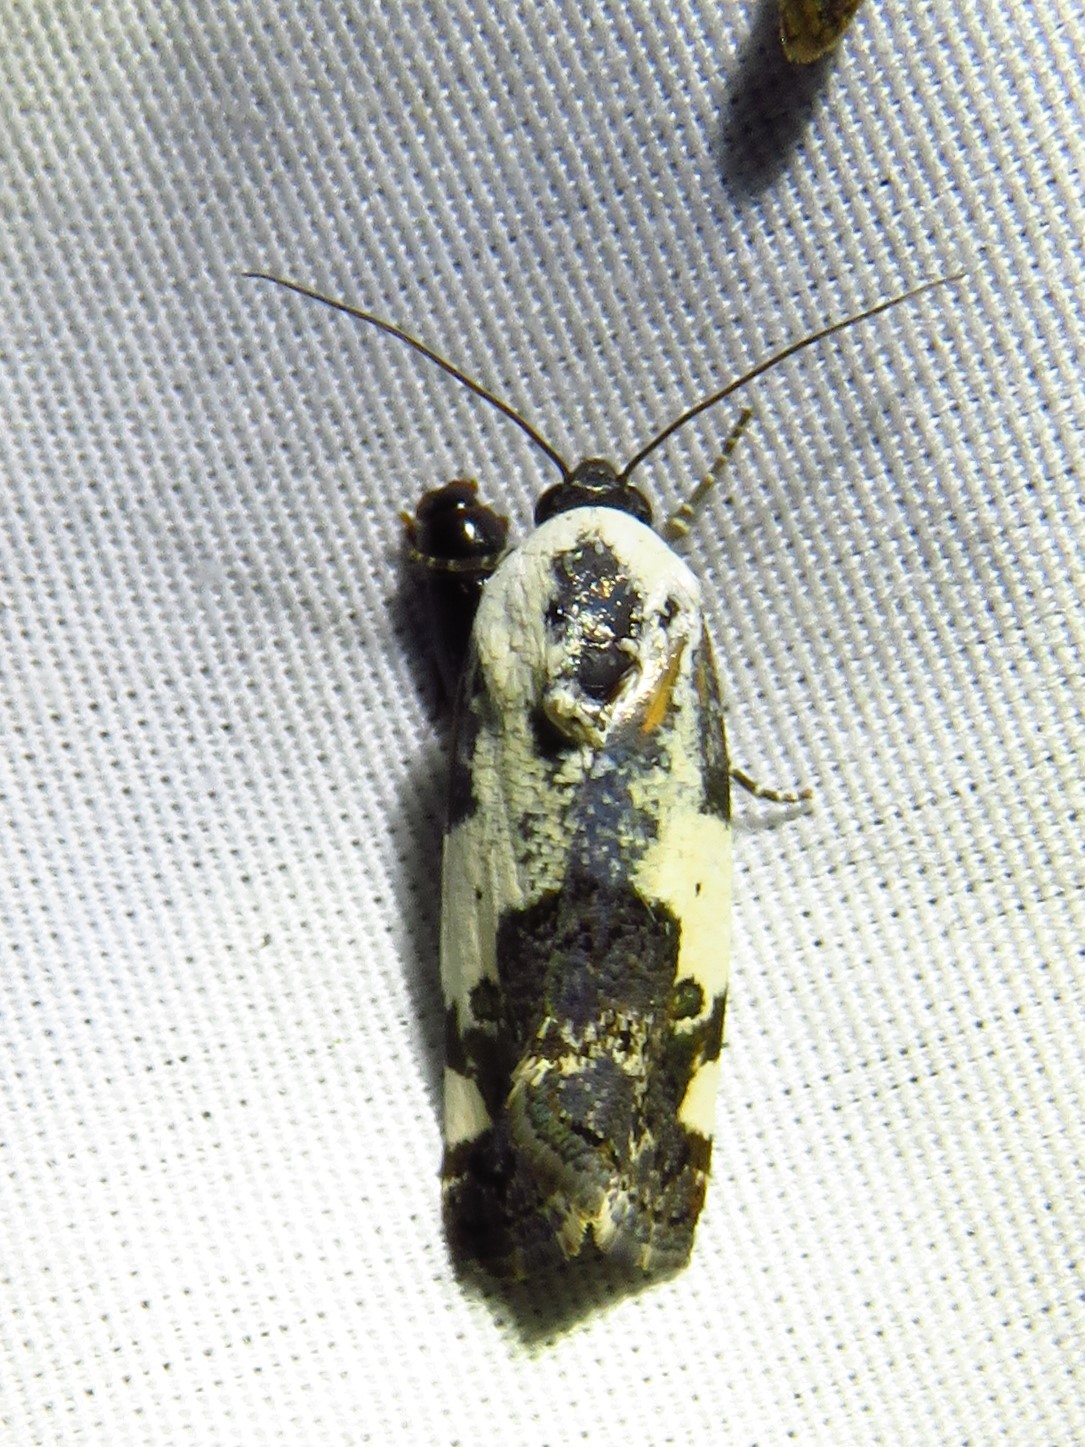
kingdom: Animalia
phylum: Arthropoda
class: Insecta
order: Lepidoptera
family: Noctuidae
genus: Acontia
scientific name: Acontia aprica
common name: Nun
